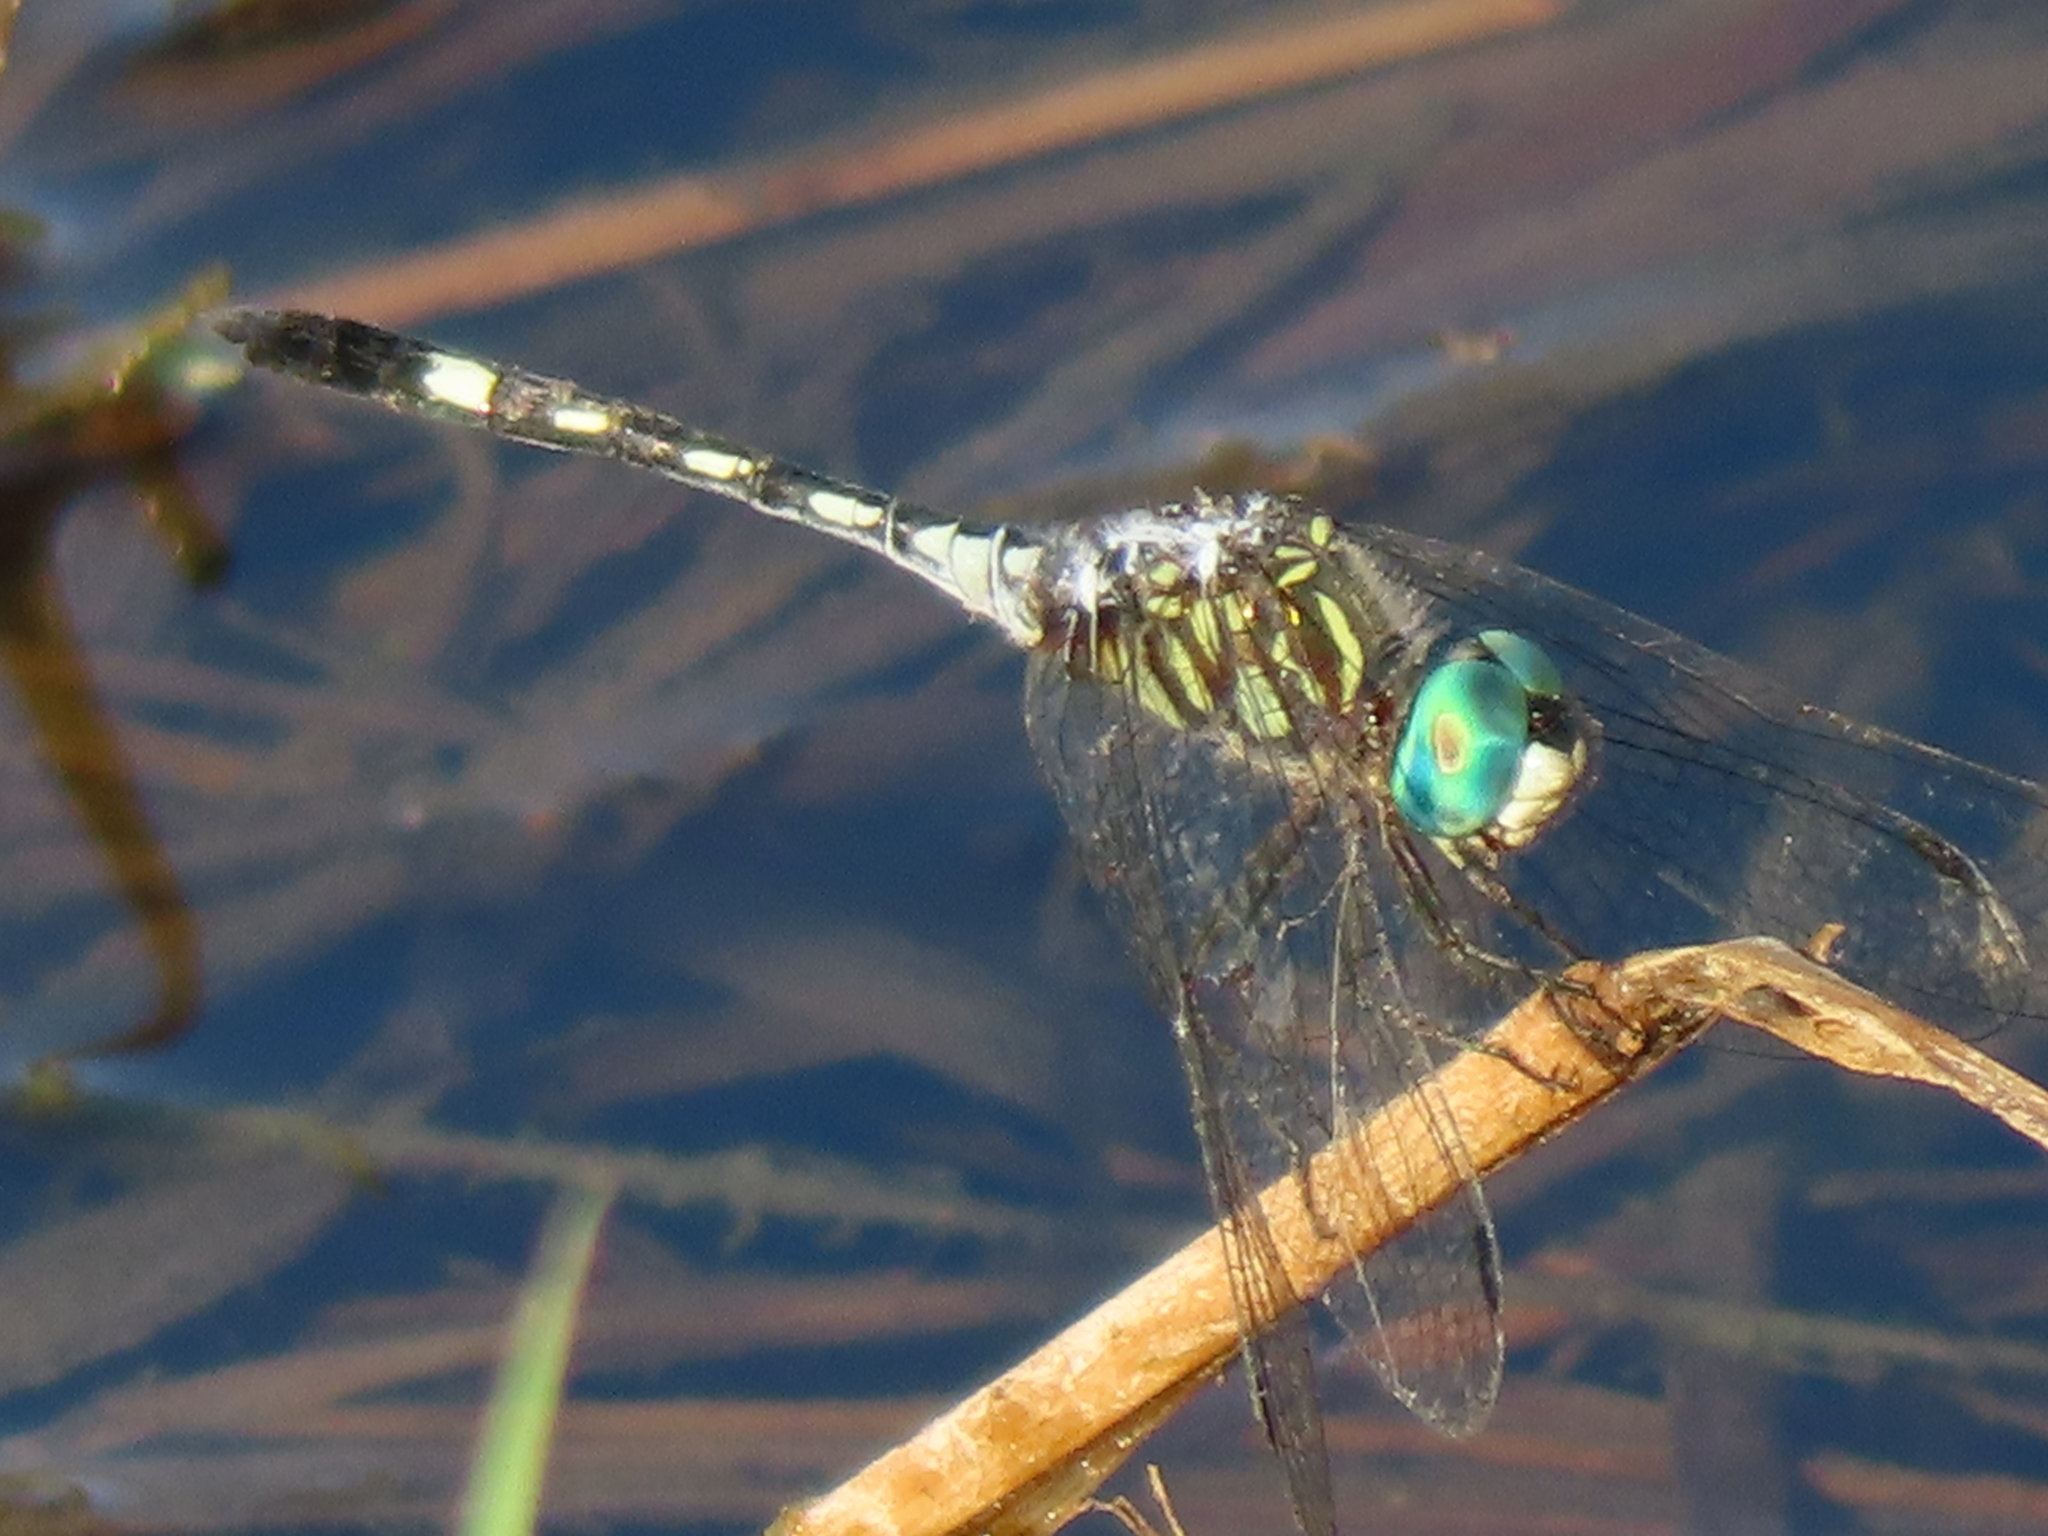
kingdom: Animalia
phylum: Arthropoda
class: Insecta
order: Odonata
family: Libellulidae
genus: Micrathyria
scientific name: Micrathyria hagenii
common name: Thornbush dasher
